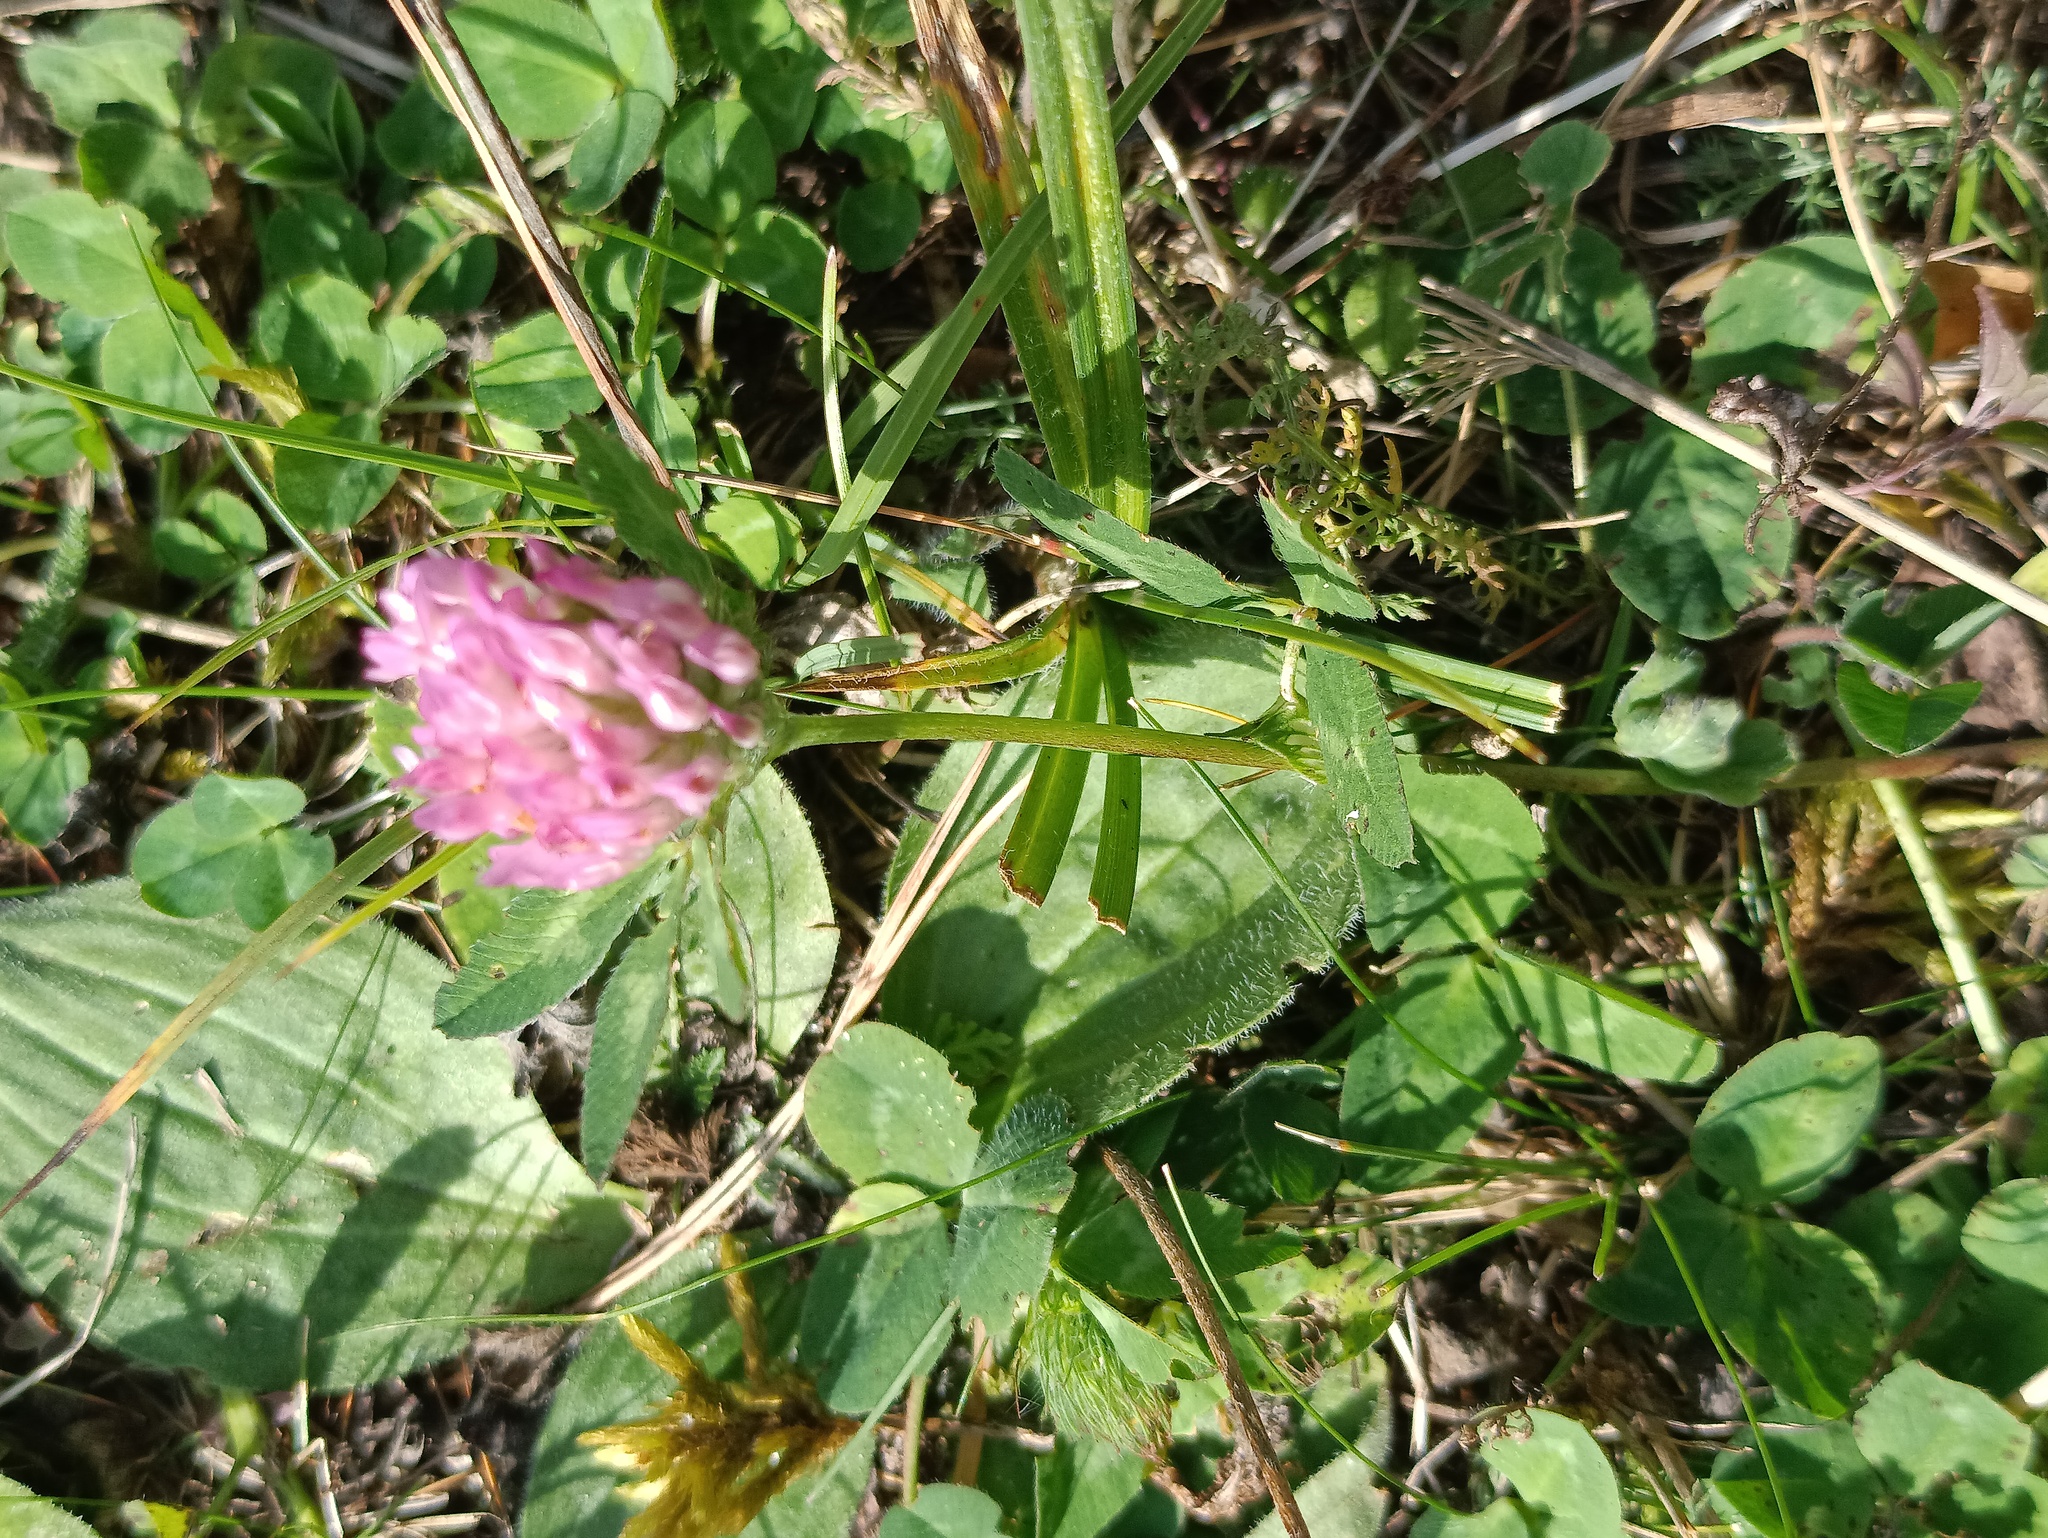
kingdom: Plantae
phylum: Tracheophyta
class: Magnoliopsida
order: Fabales
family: Fabaceae
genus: Trifolium
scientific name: Trifolium pratense
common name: Red clover
